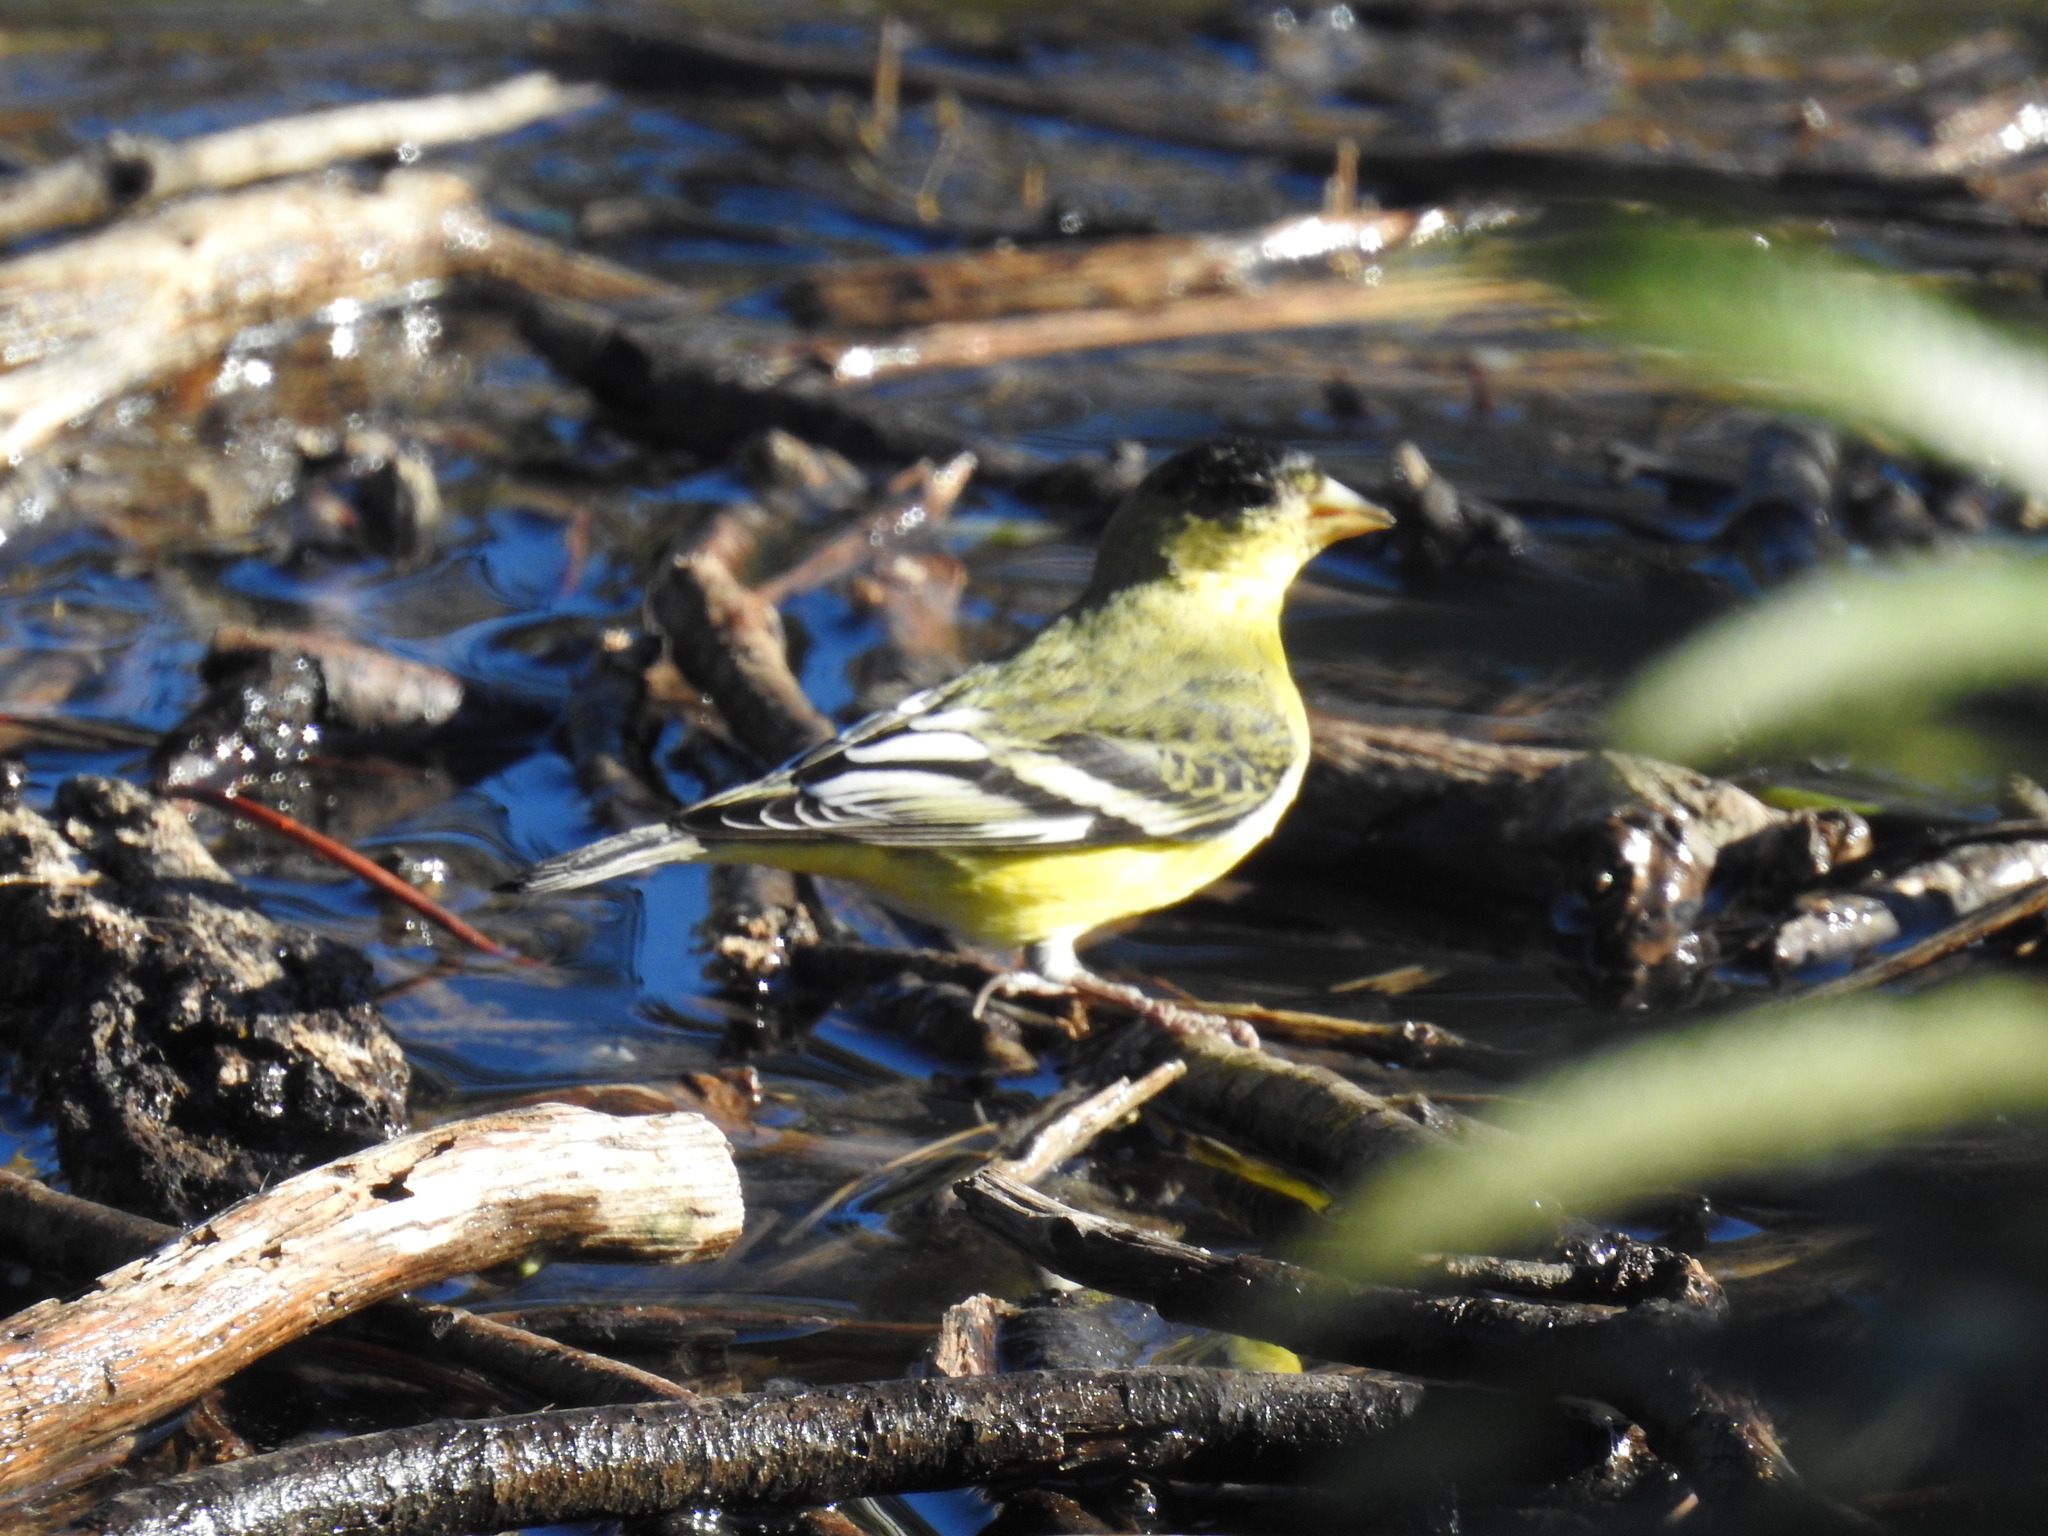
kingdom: Animalia
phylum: Chordata
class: Aves
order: Passeriformes
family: Fringillidae
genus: Spinus
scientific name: Spinus psaltria
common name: Lesser goldfinch
